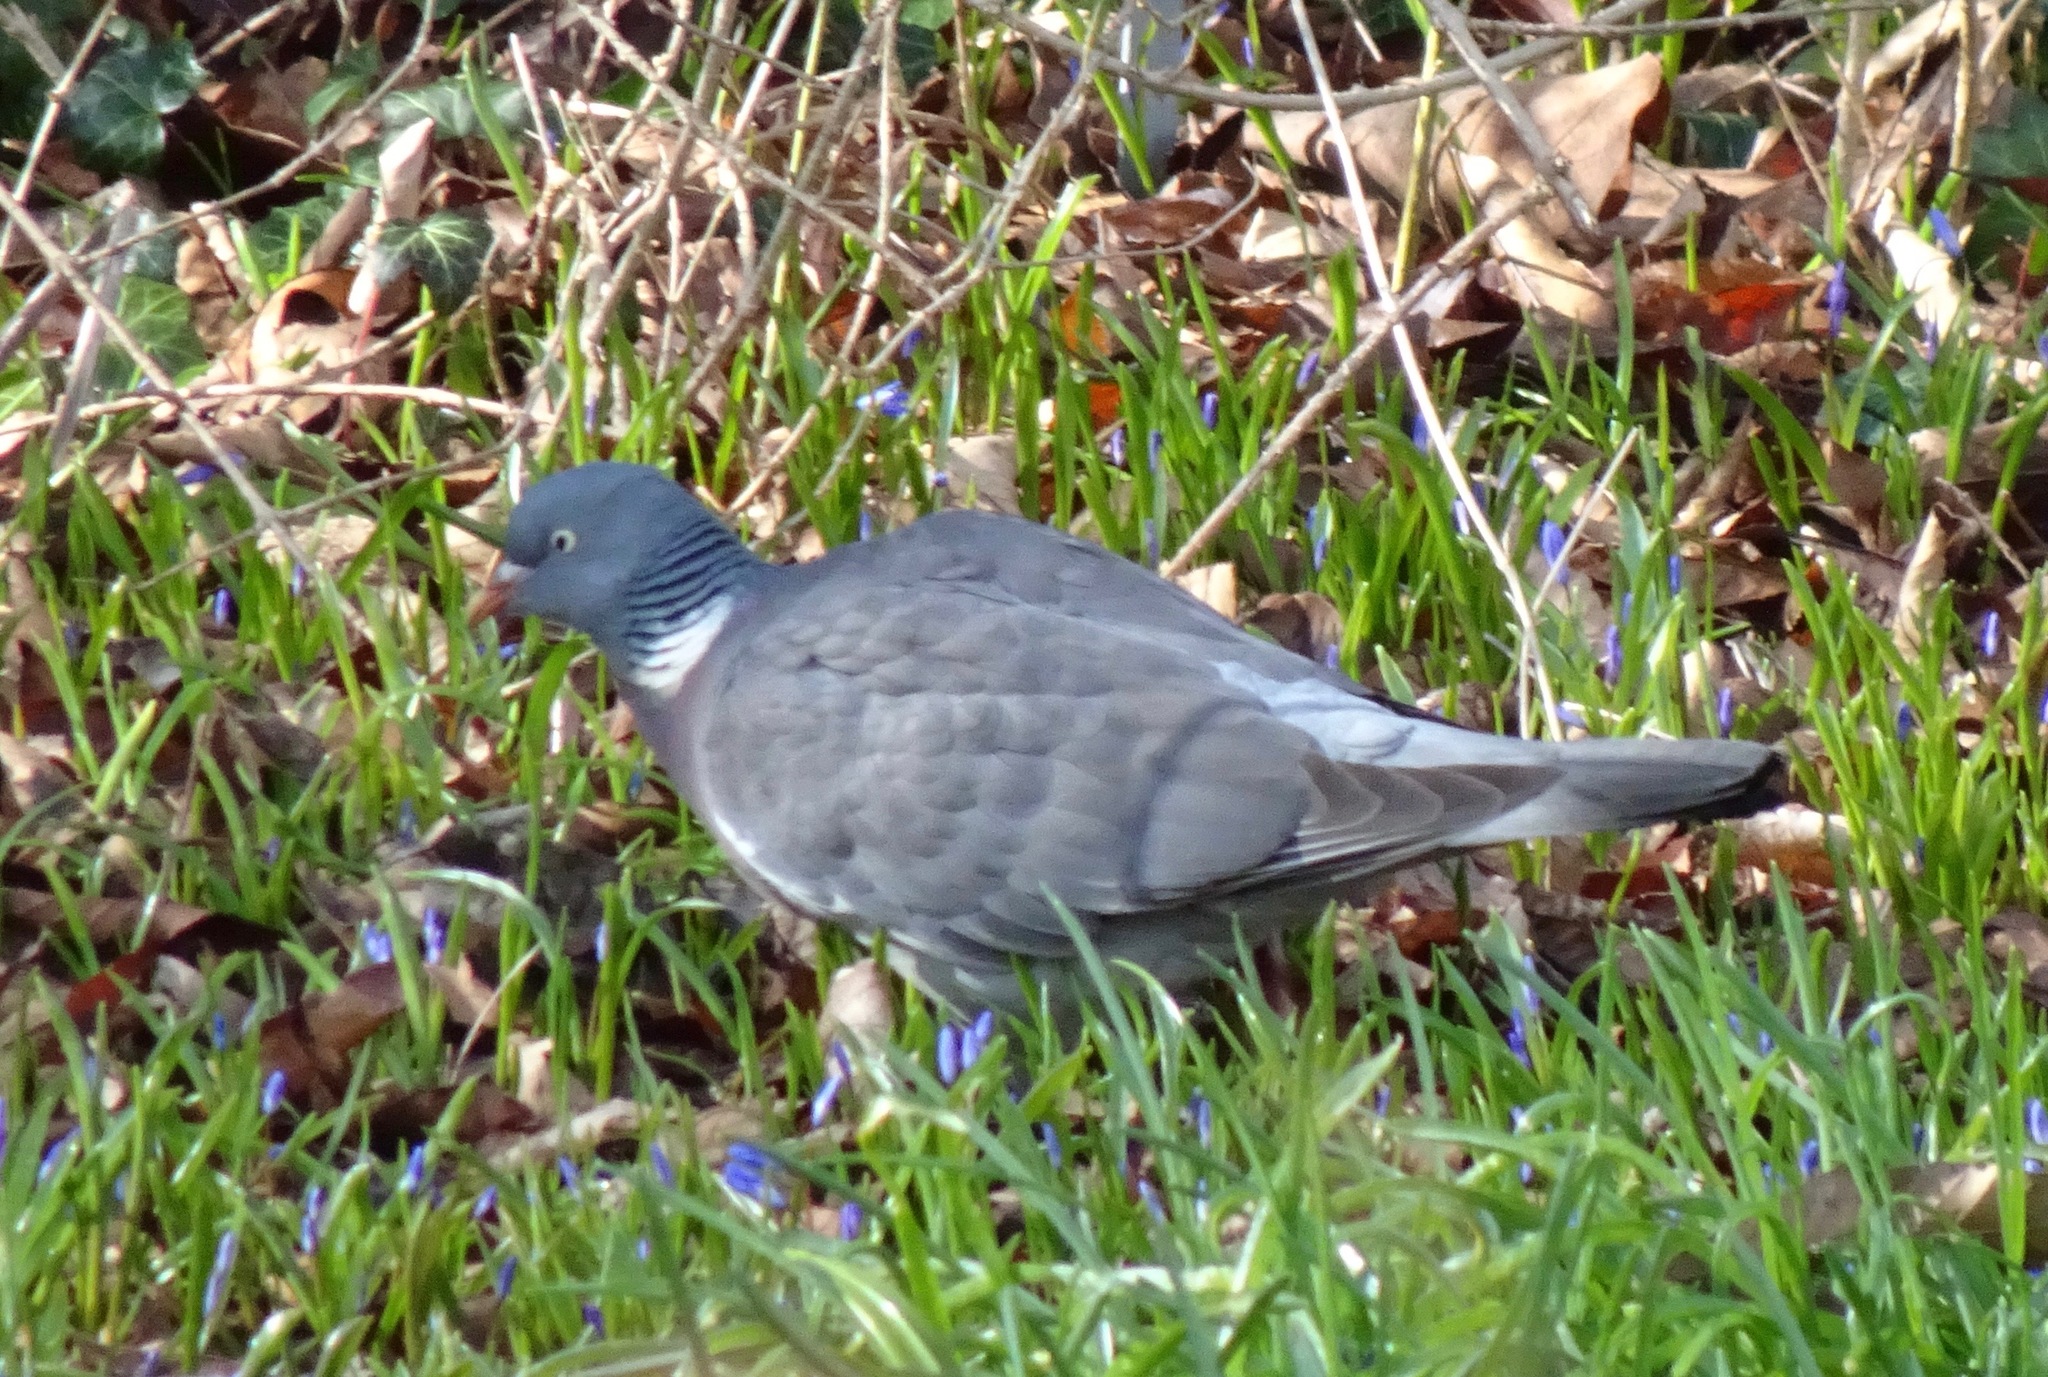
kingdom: Animalia
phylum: Chordata
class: Aves
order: Columbiformes
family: Columbidae
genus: Columba
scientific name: Columba palumbus
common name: Common wood pigeon
